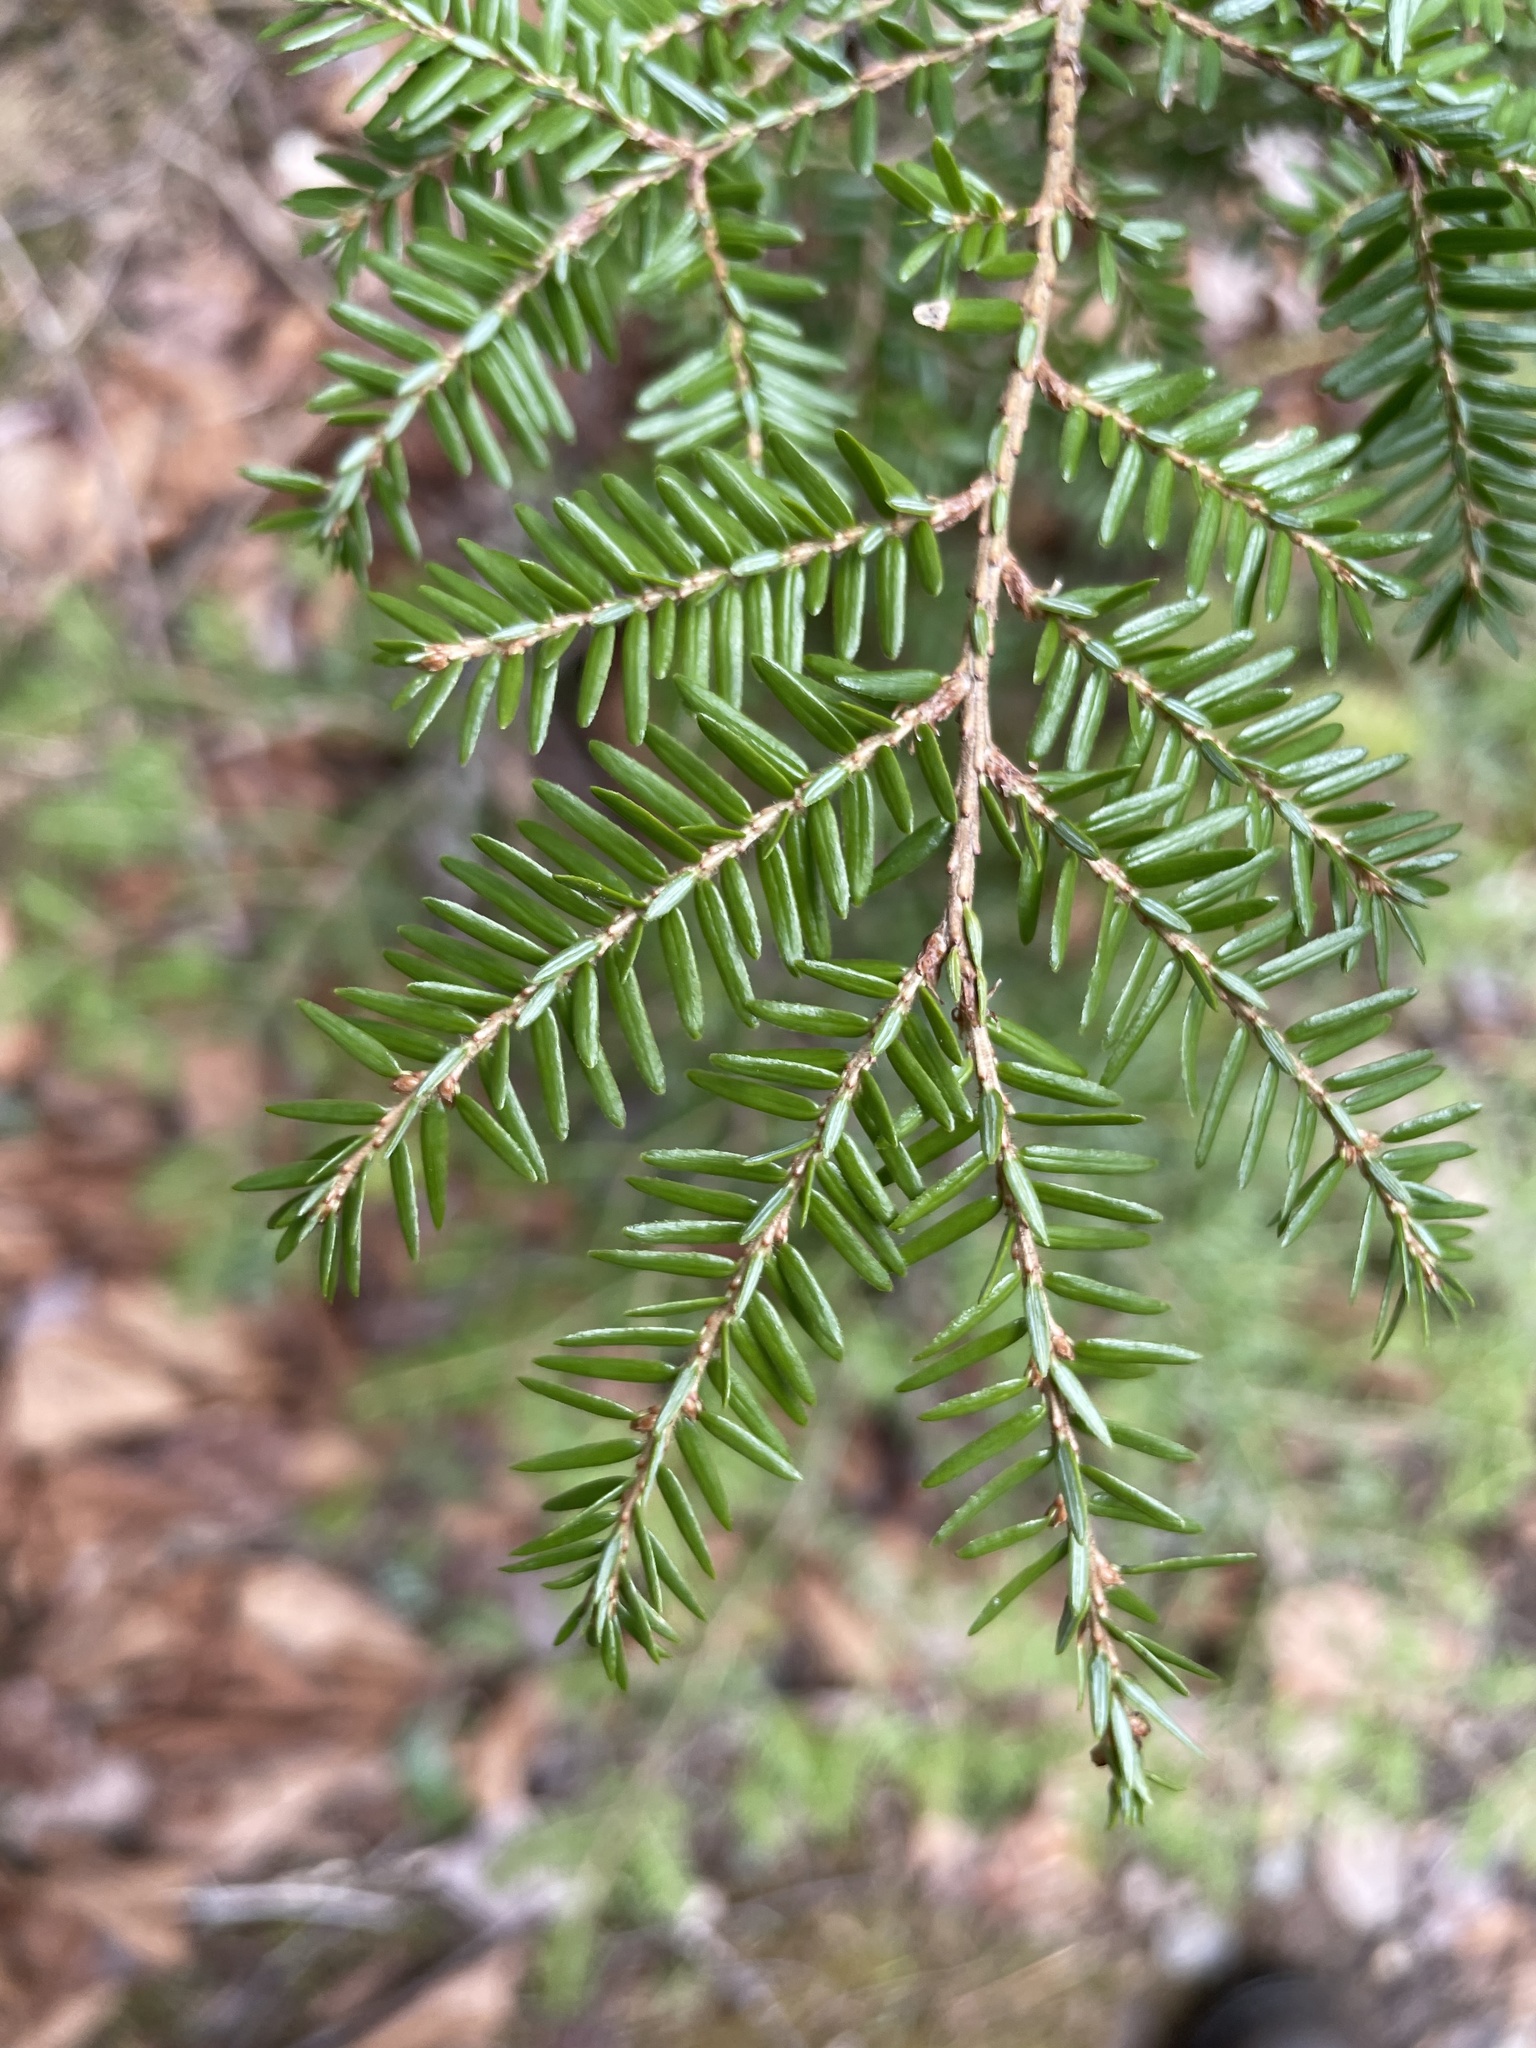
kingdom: Plantae
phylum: Tracheophyta
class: Pinopsida
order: Pinales
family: Pinaceae
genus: Tsuga
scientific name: Tsuga canadensis
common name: Eastern hemlock
